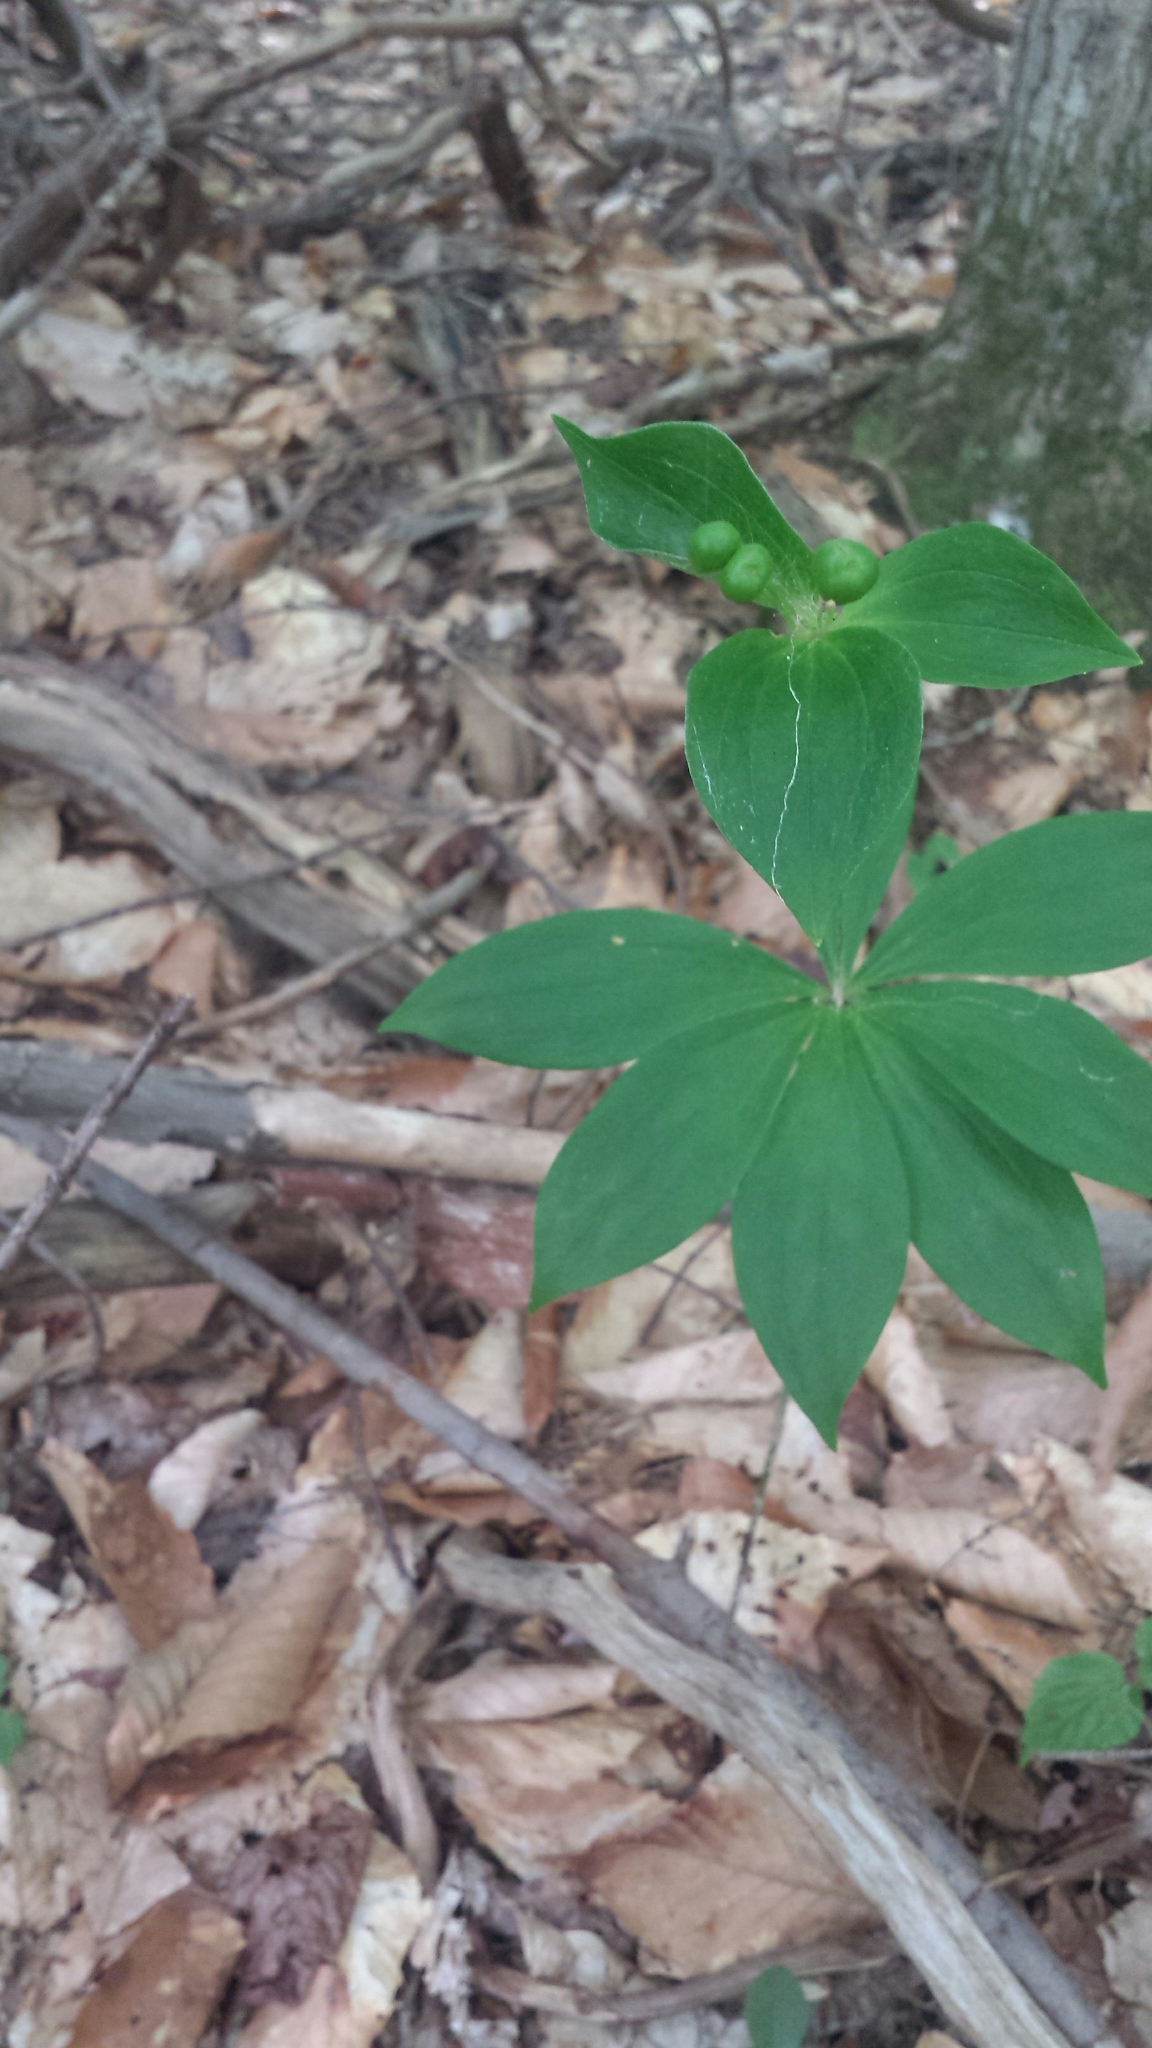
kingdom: Plantae
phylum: Tracheophyta
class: Liliopsida
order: Liliales
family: Liliaceae
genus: Medeola
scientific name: Medeola virginiana
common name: Indian cucumber-root
